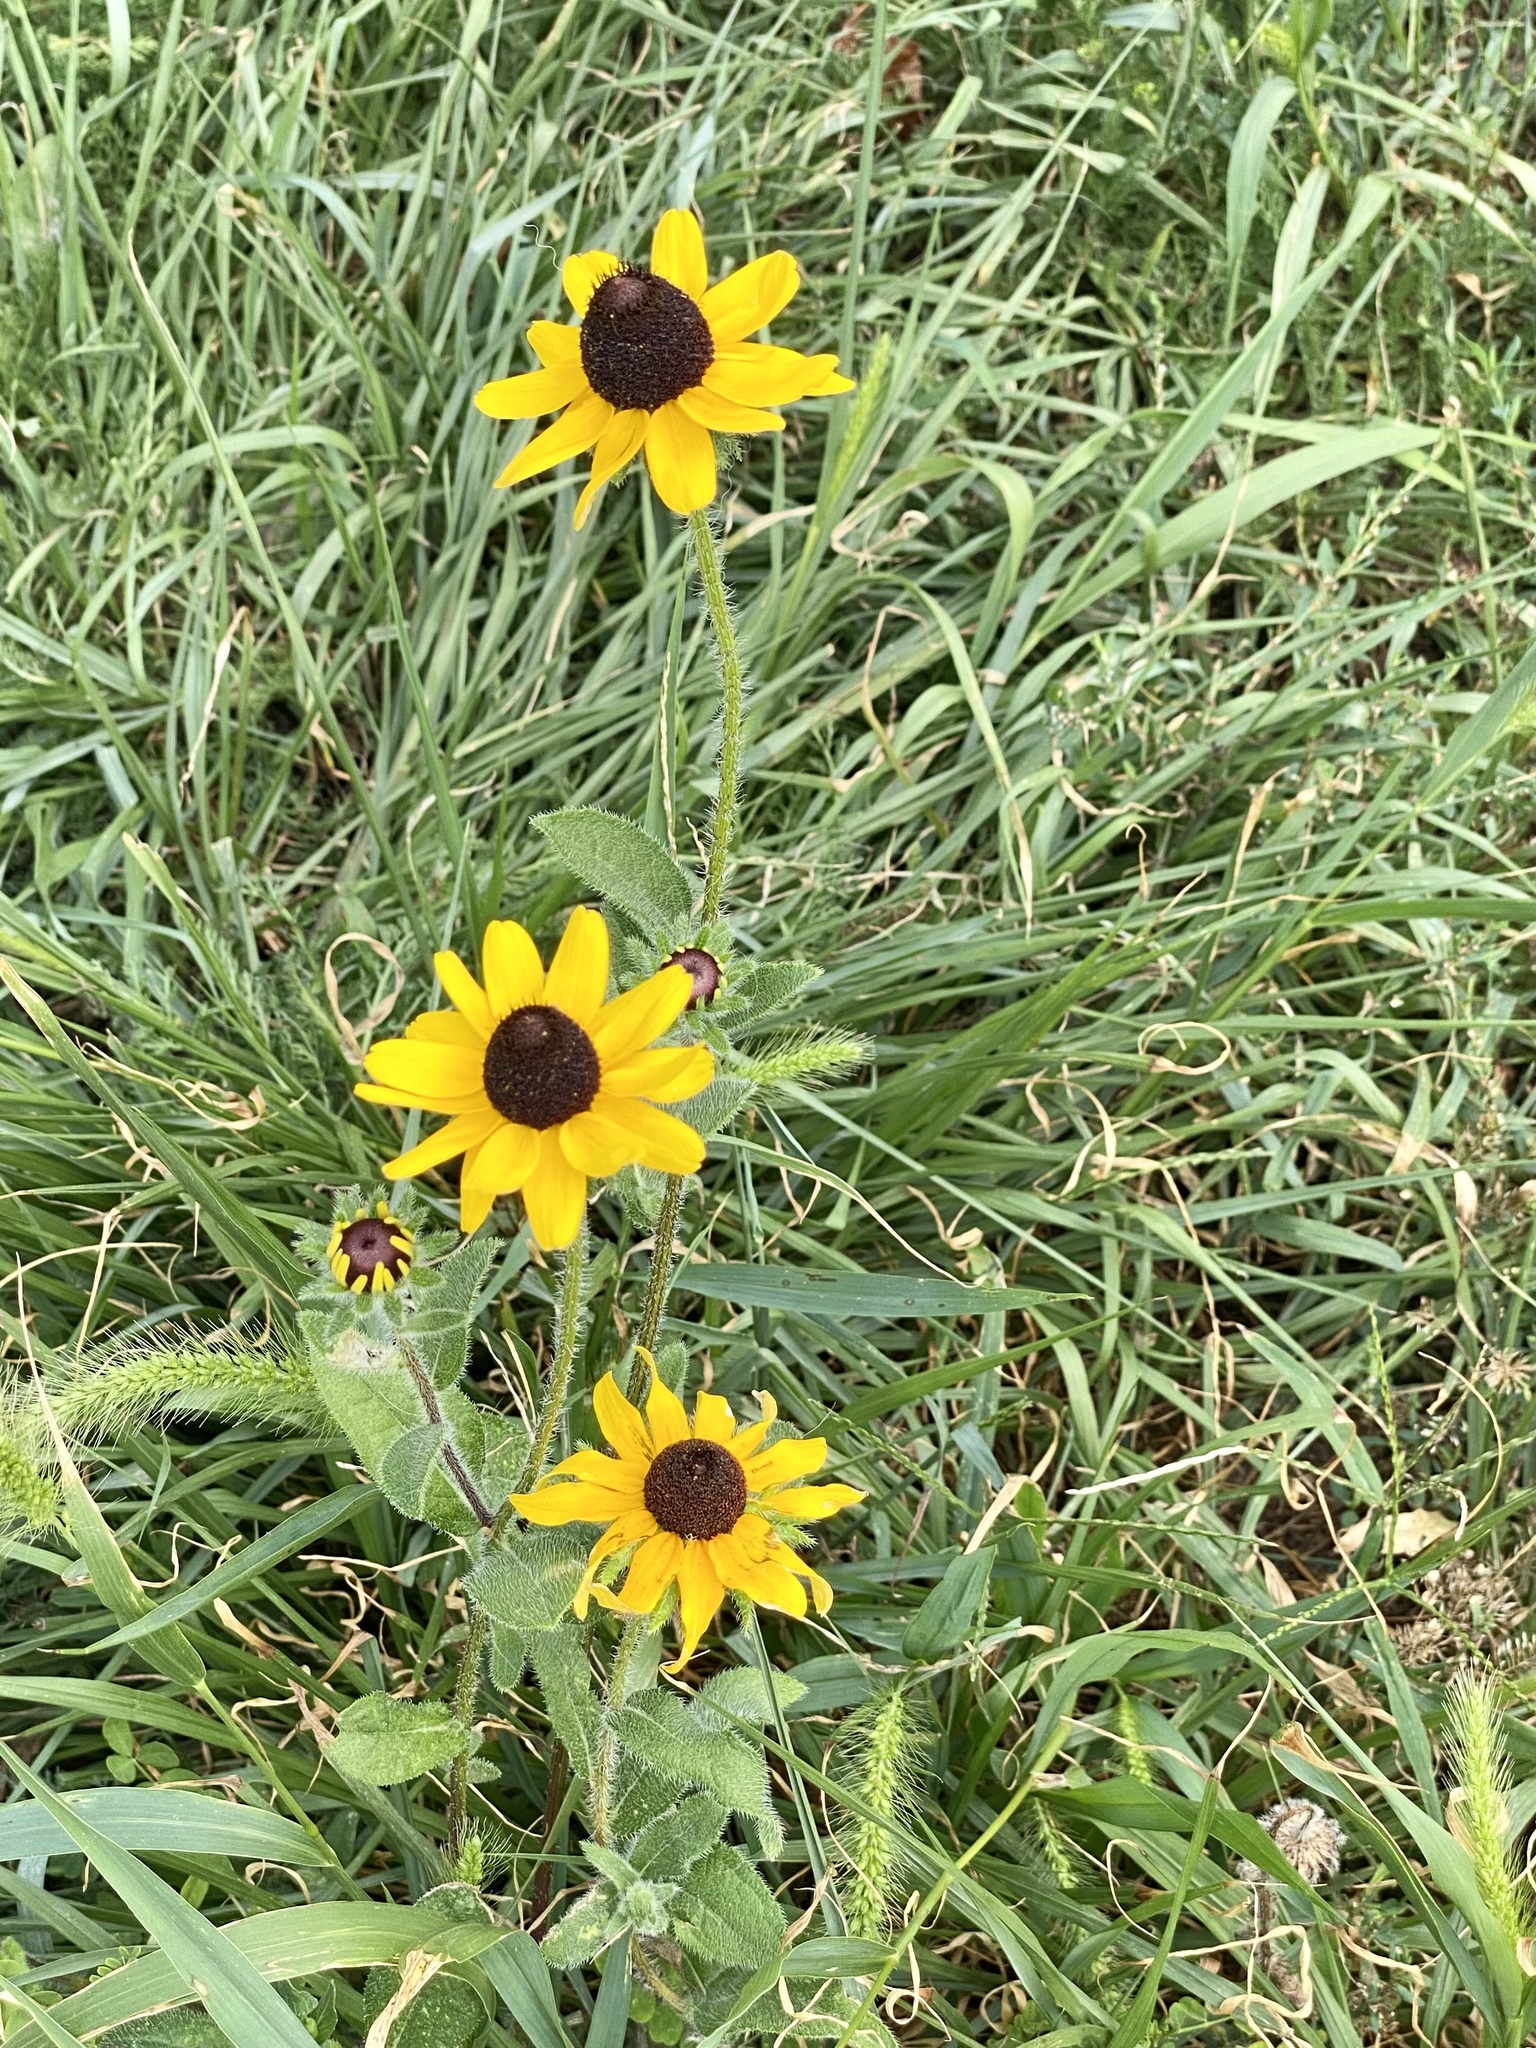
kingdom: Plantae
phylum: Tracheophyta
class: Magnoliopsida
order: Asterales
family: Asteraceae
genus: Rudbeckia
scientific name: Rudbeckia hirta
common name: Black-eyed-susan
